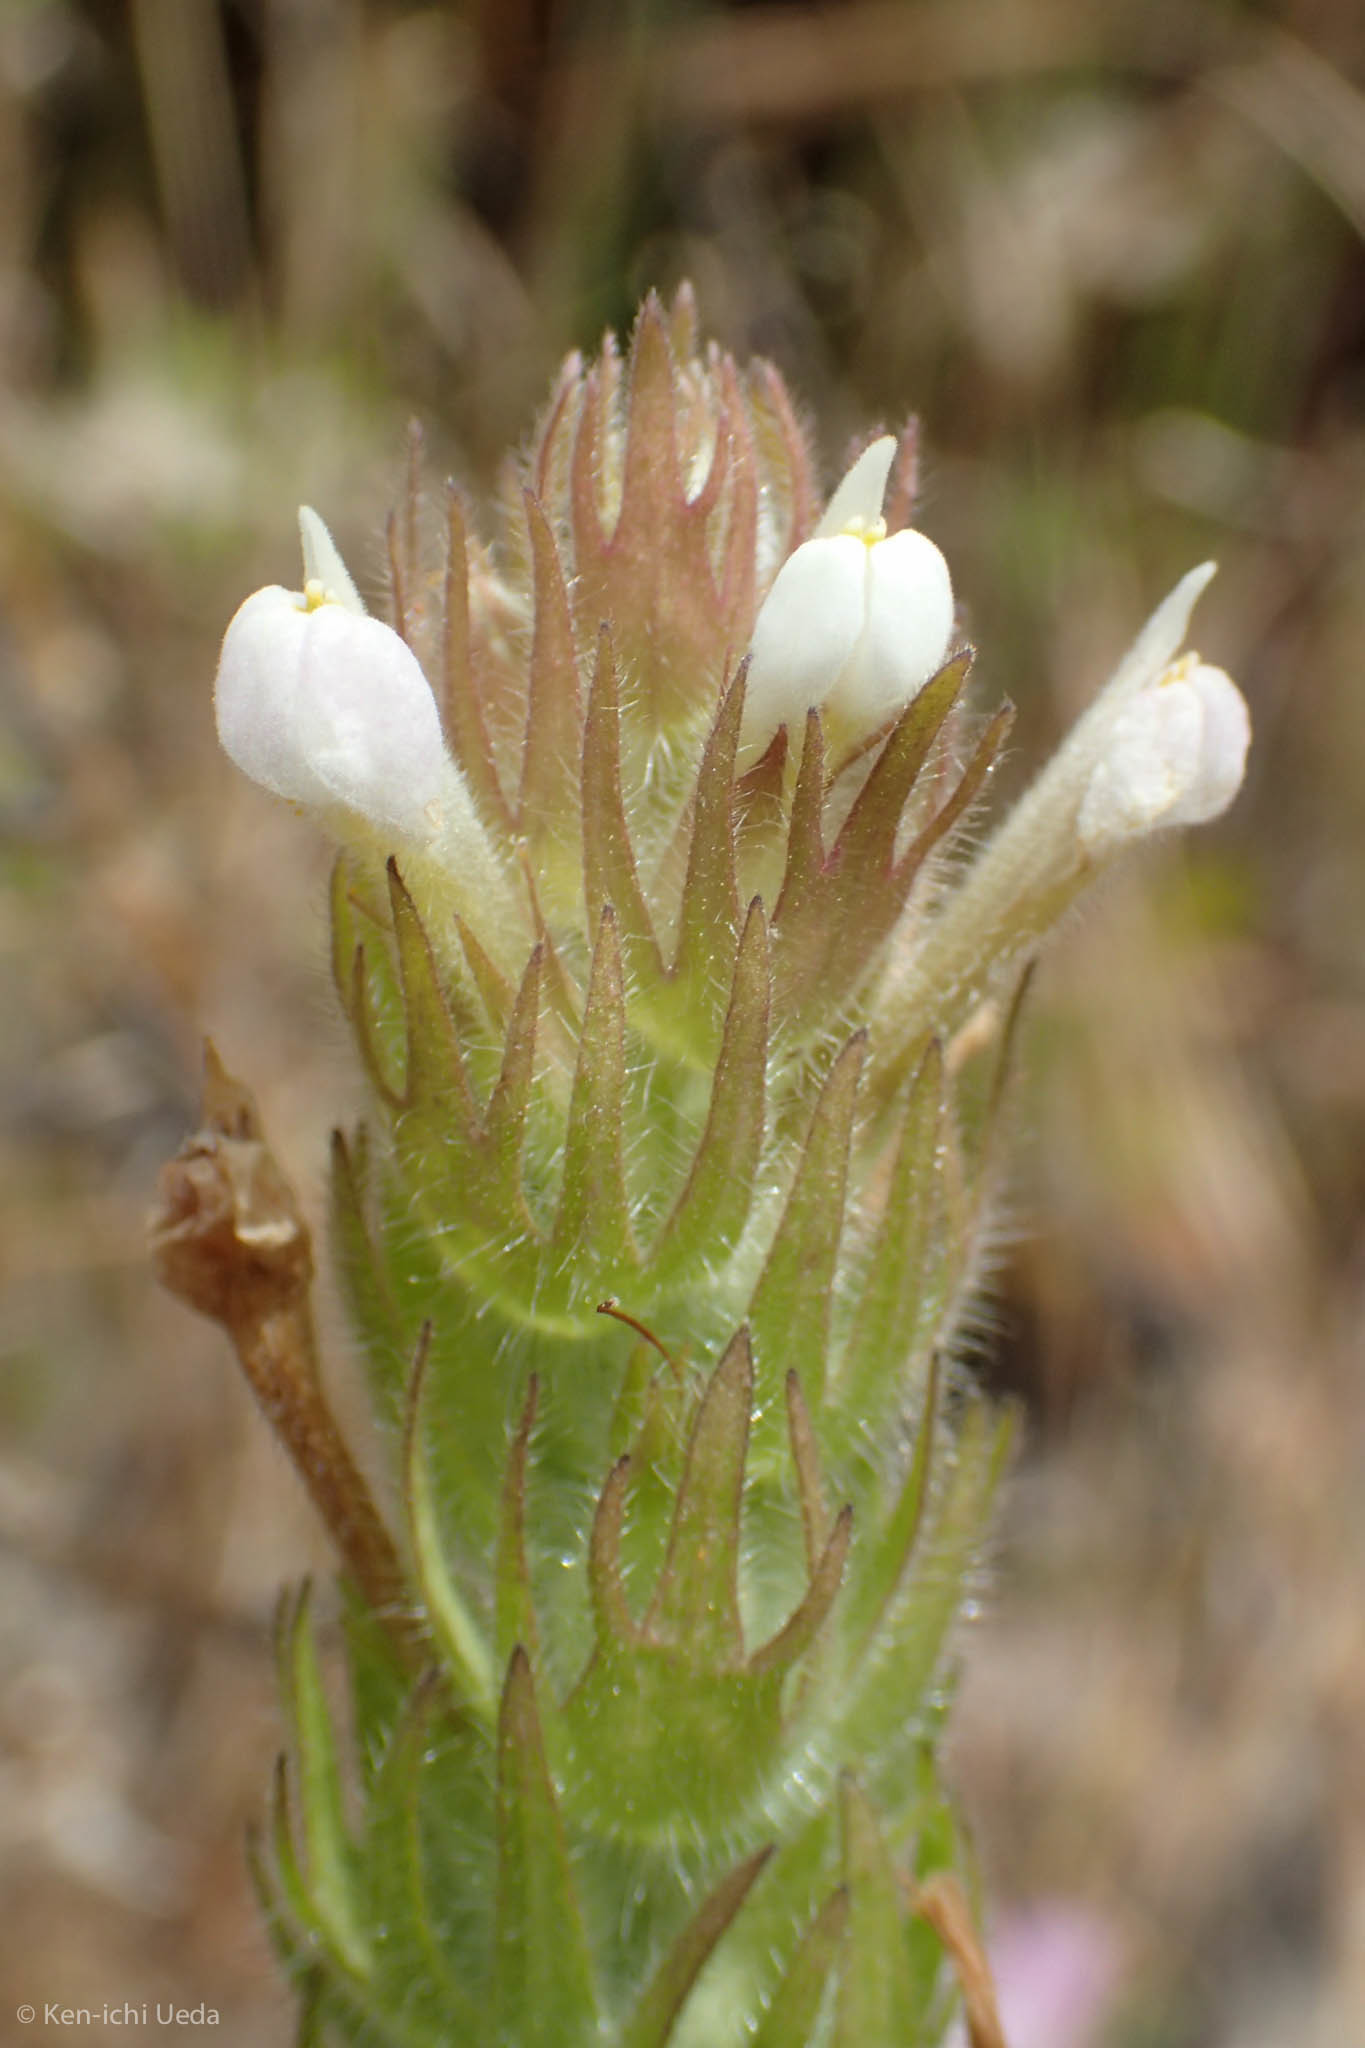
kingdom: Plantae
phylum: Tracheophyta
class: Magnoliopsida
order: Lamiales
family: Orobanchaceae
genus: Castilleja
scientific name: Castilleja tenuis
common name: Hairy indian paintbrush
